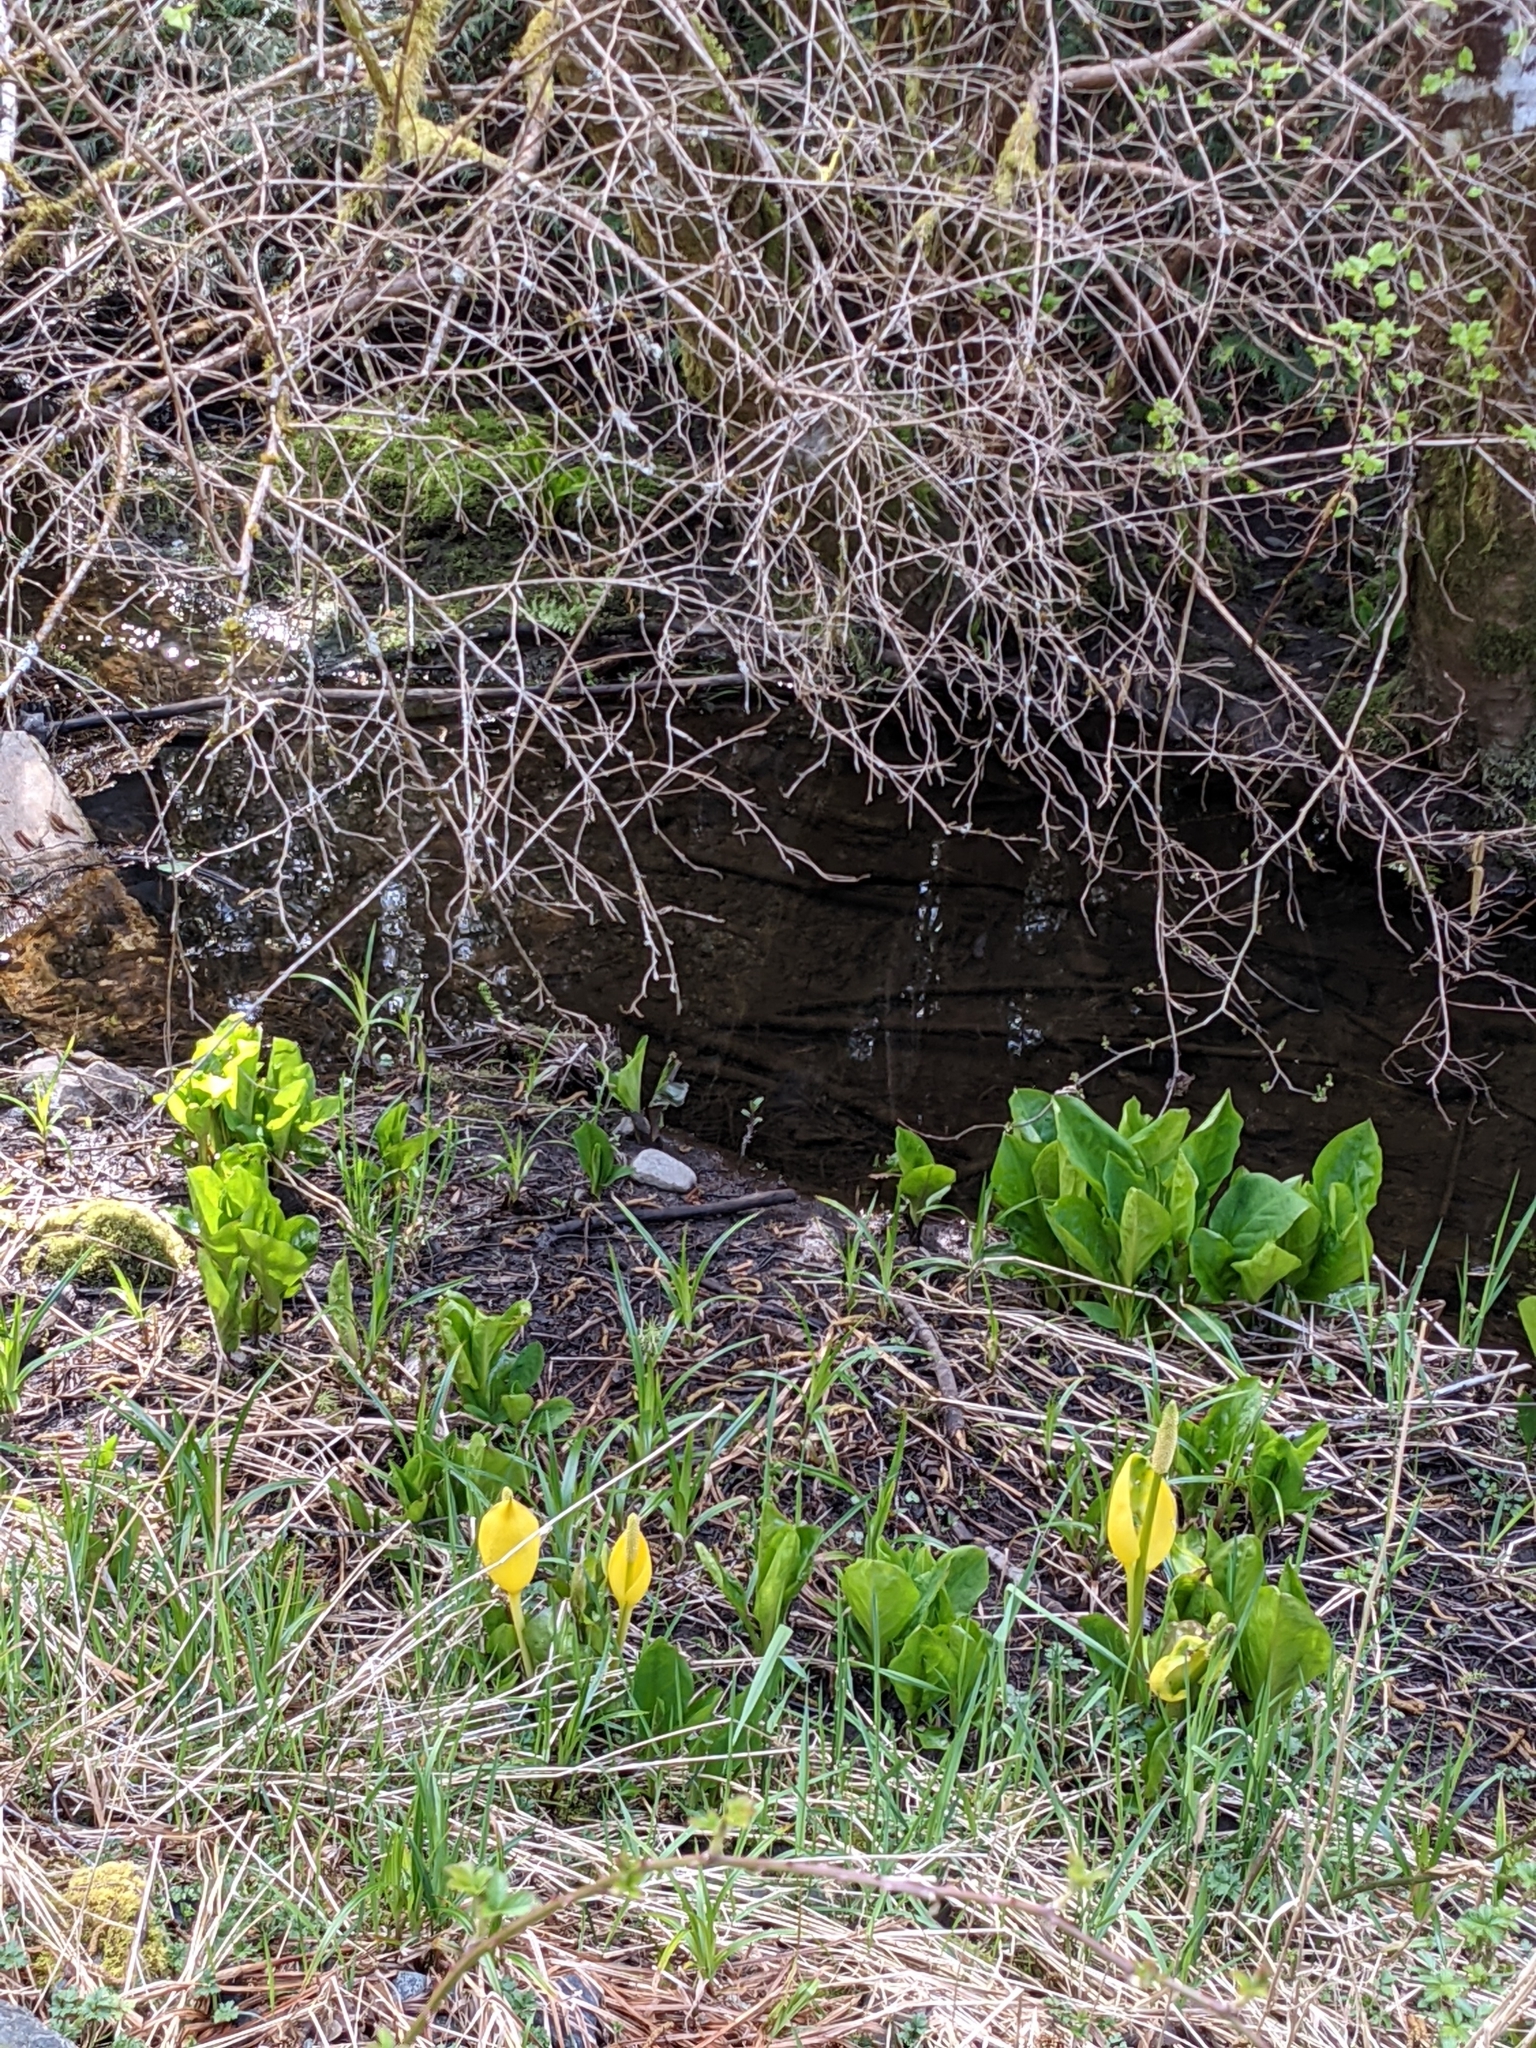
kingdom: Plantae
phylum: Tracheophyta
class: Liliopsida
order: Alismatales
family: Araceae
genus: Lysichiton
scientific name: Lysichiton americanus
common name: American skunk cabbage
